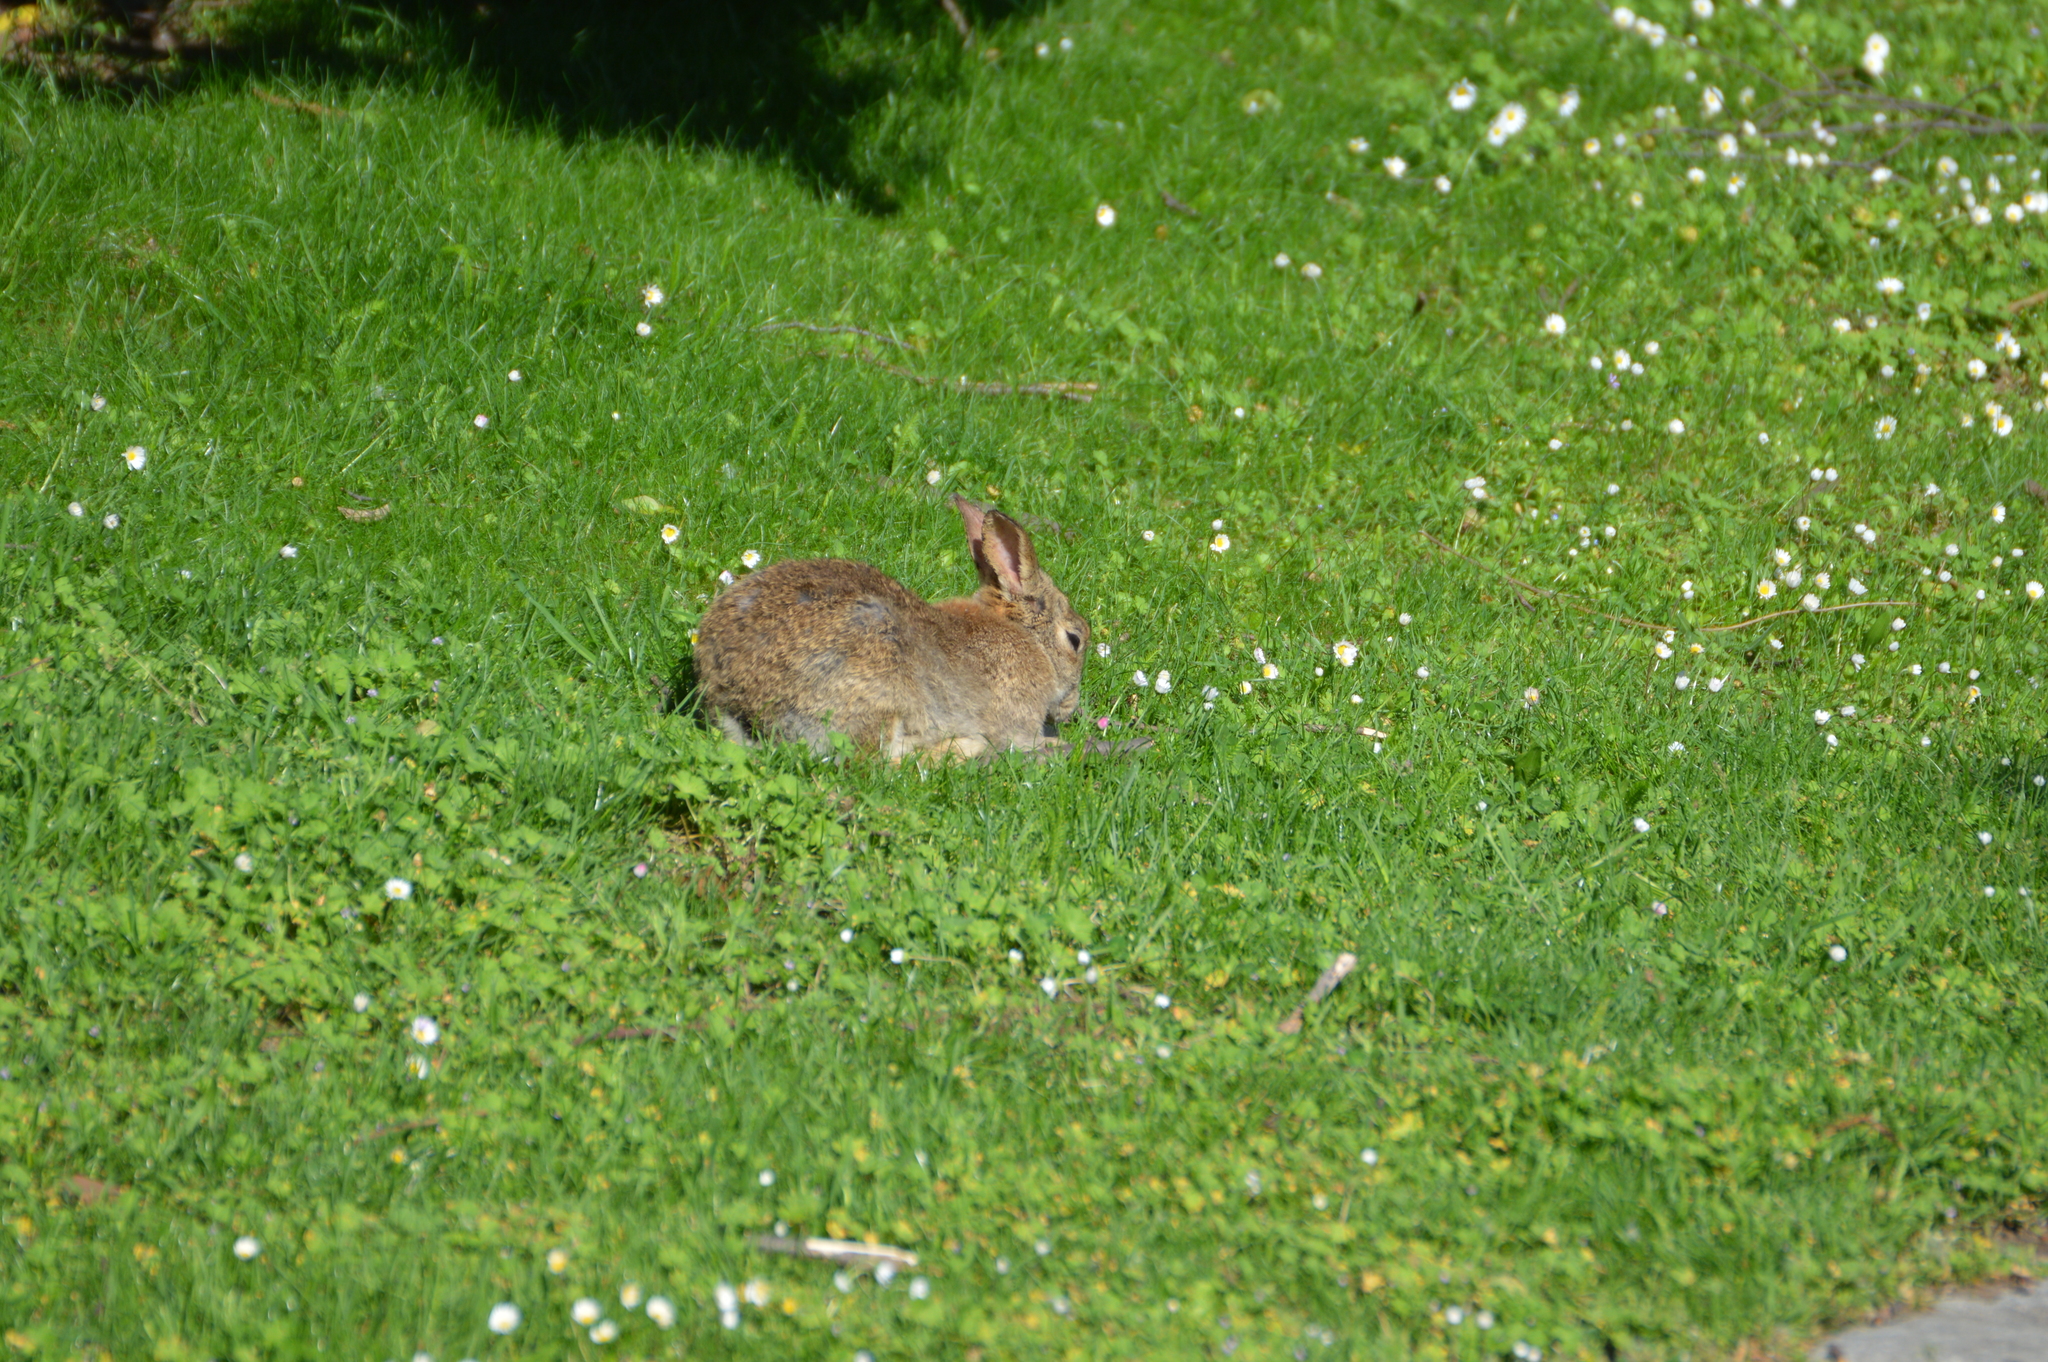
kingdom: Animalia
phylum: Chordata
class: Mammalia
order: Lagomorpha
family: Leporidae
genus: Oryctolagus
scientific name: Oryctolagus cuniculus
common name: European rabbit
